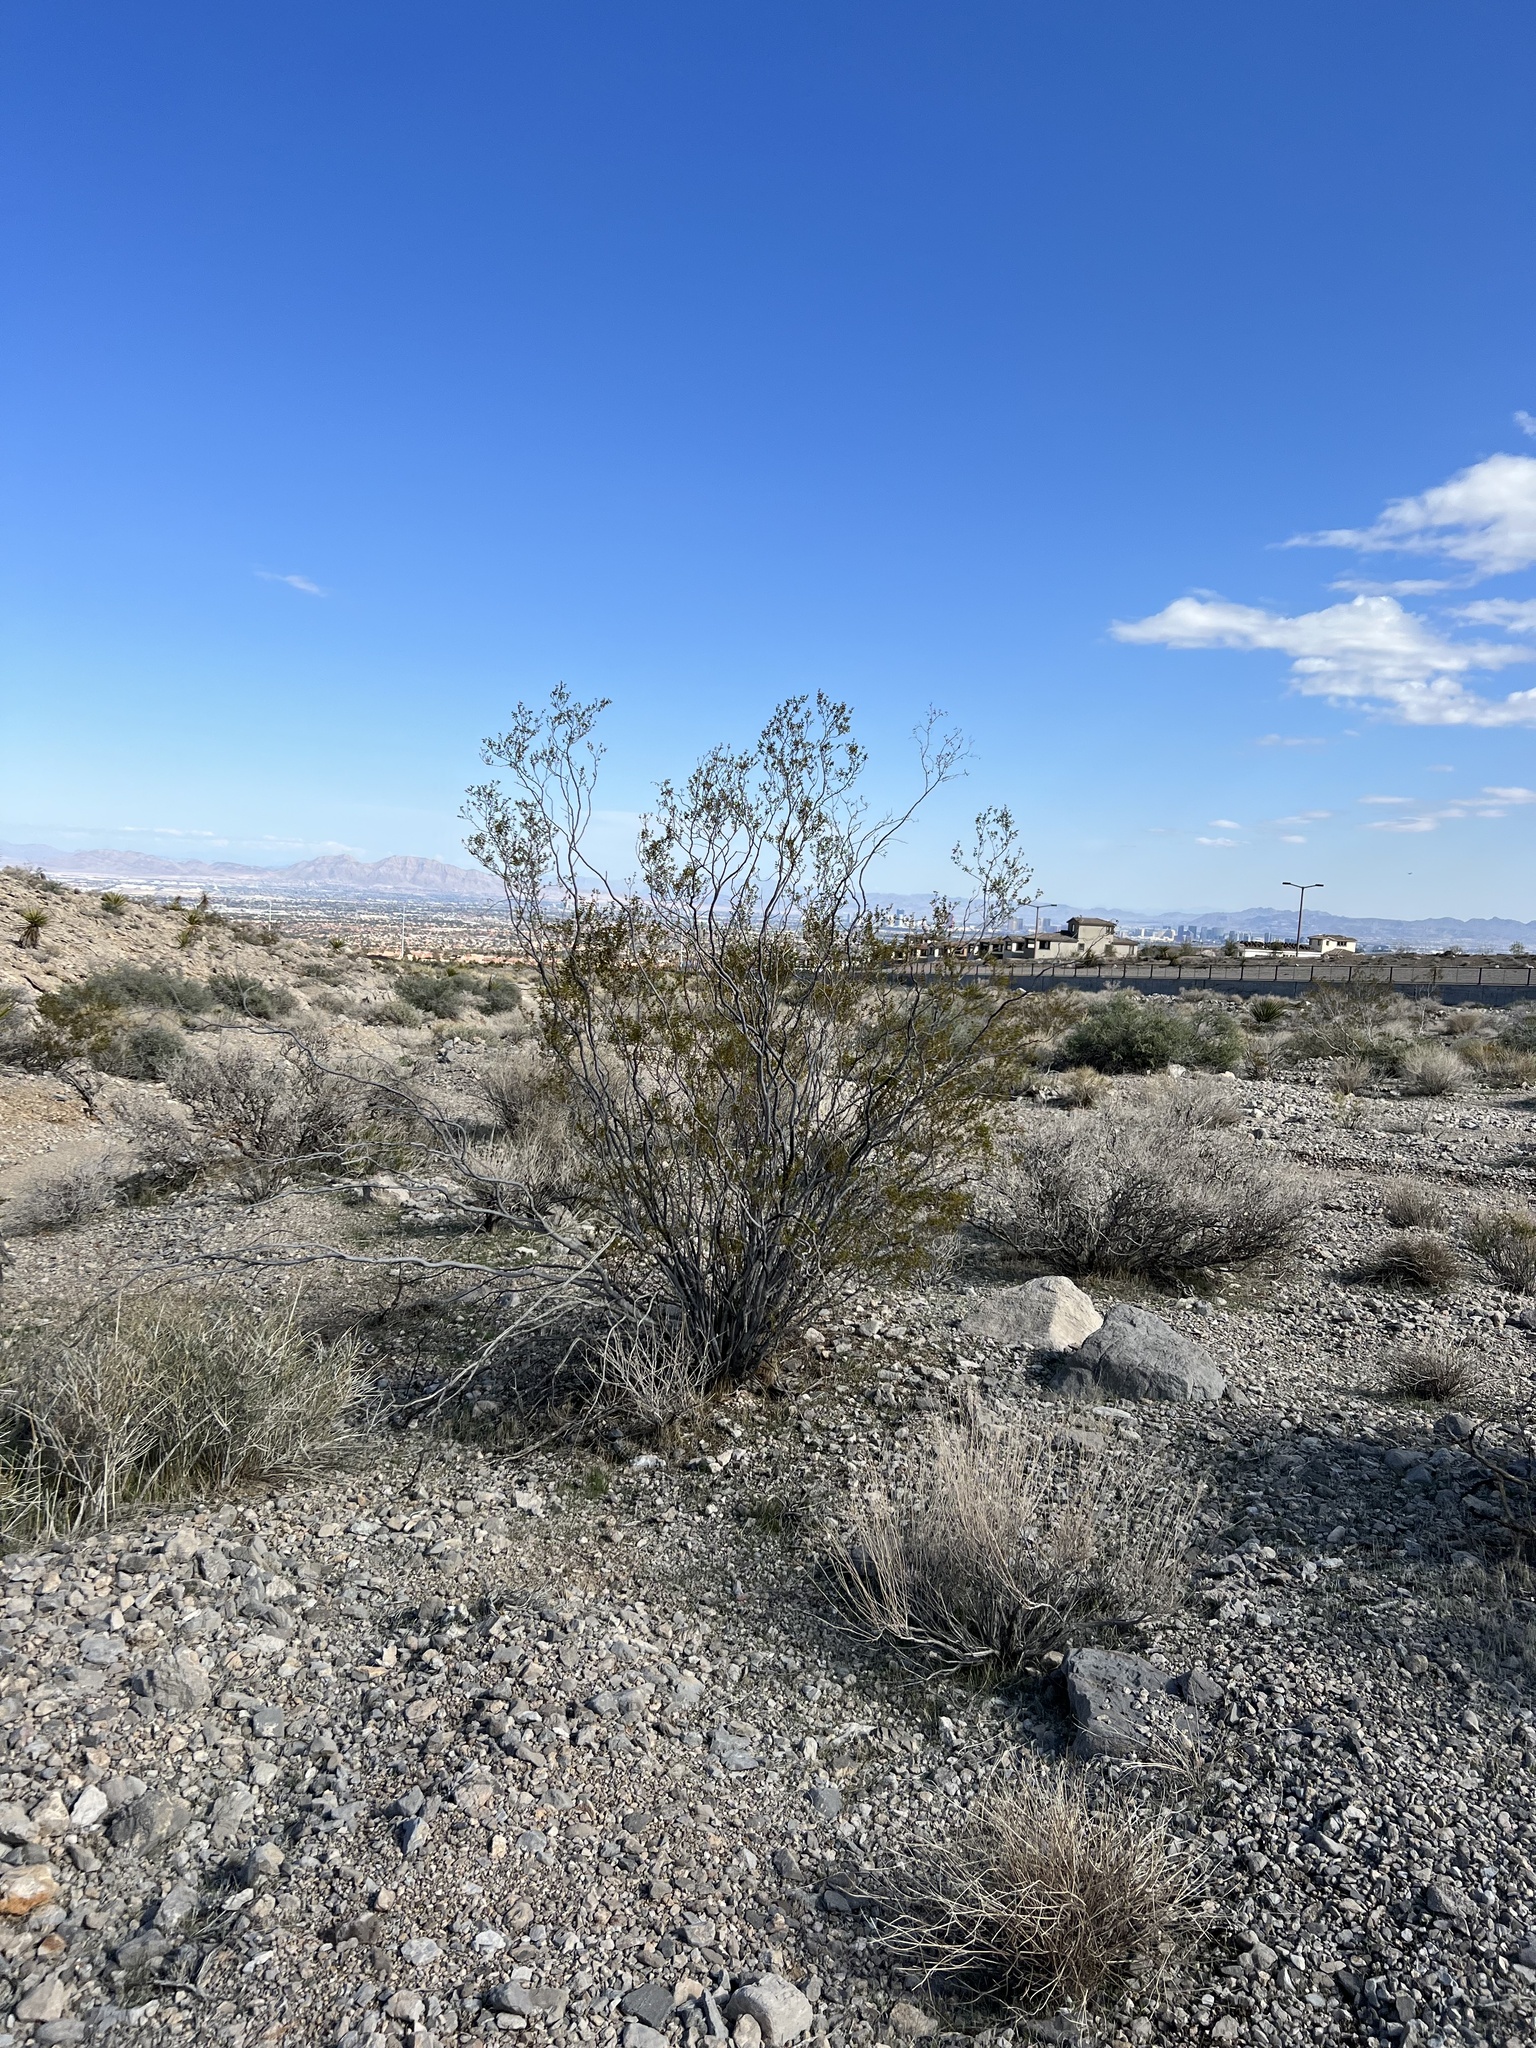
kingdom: Plantae
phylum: Tracheophyta
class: Magnoliopsida
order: Zygophyllales
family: Zygophyllaceae
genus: Larrea
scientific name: Larrea tridentata
